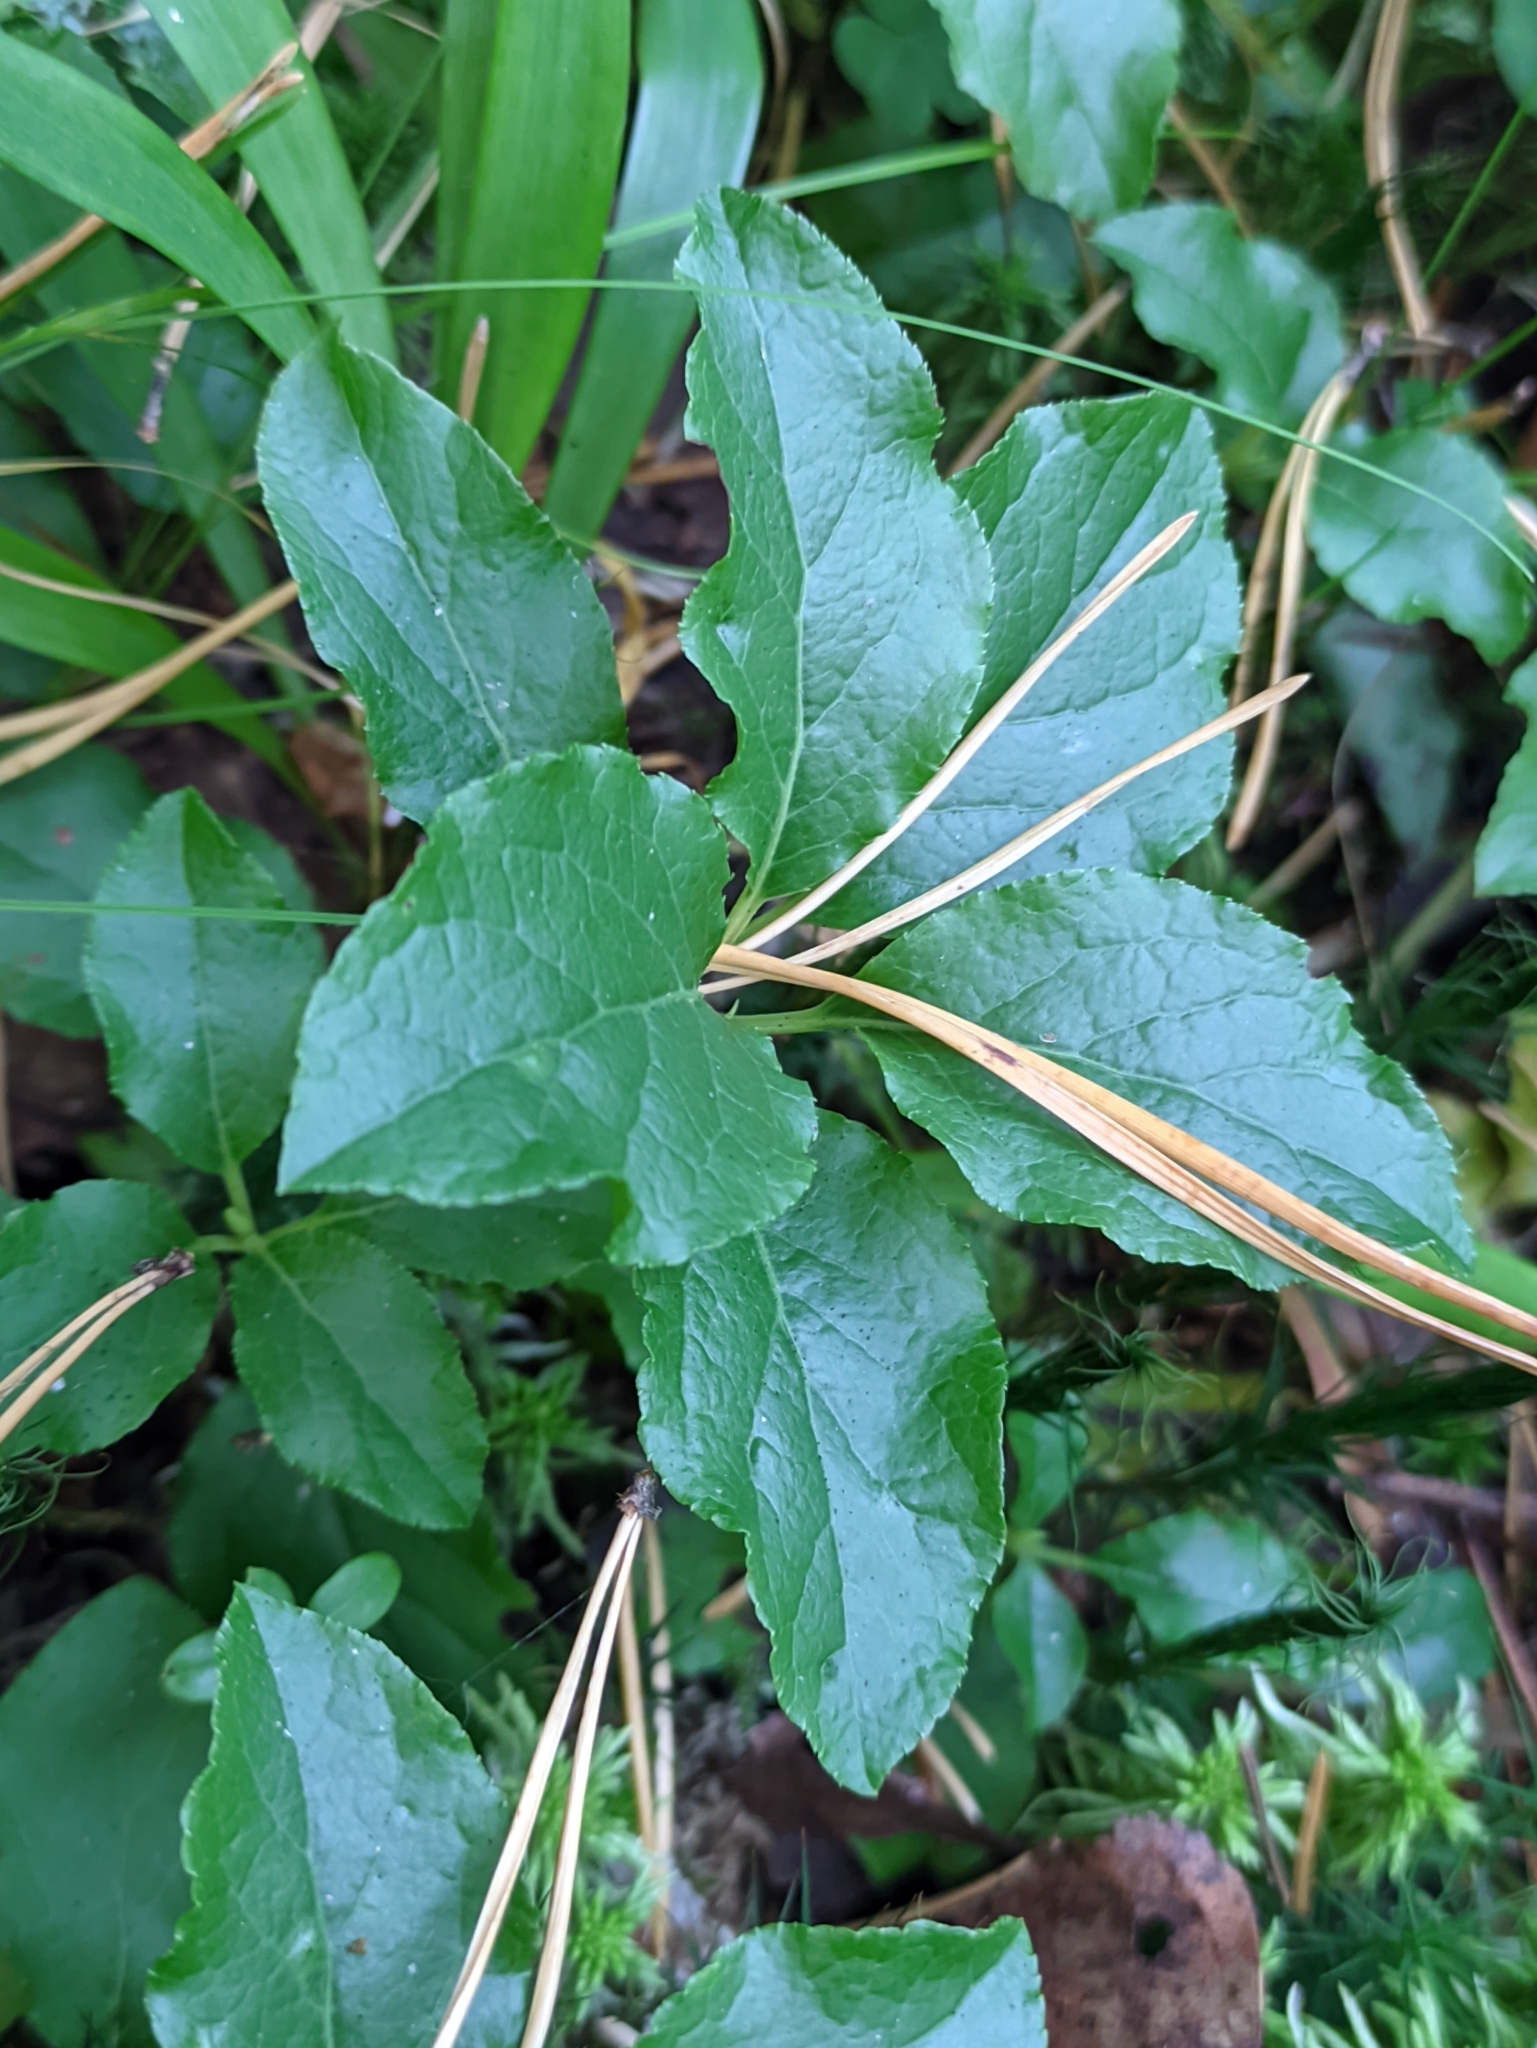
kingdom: Plantae
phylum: Tracheophyta
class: Magnoliopsida
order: Ericales
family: Ericaceae
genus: Orthilia
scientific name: Orthilia secunda
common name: One-sided orthilia
